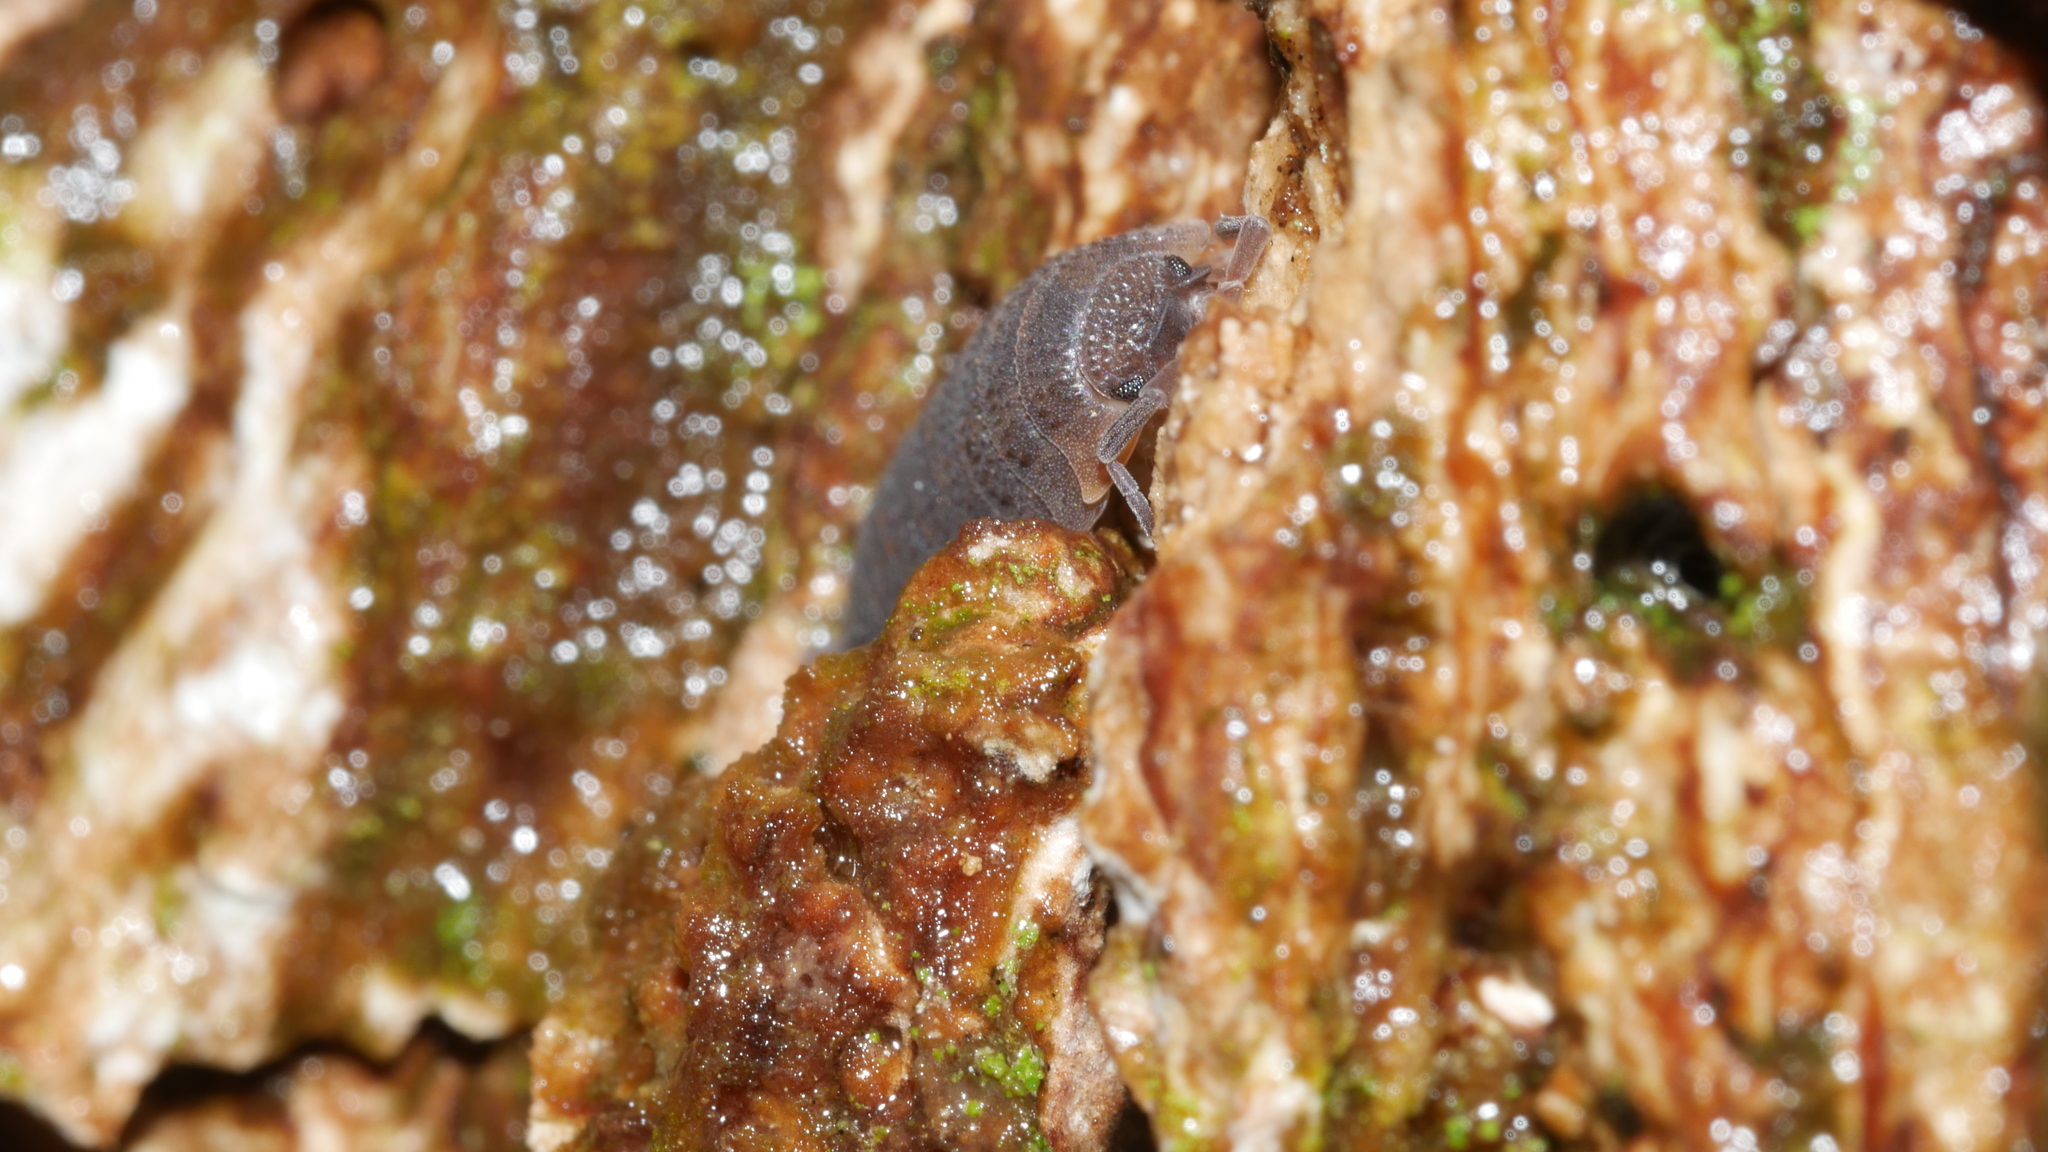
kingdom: Animalia
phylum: Arthropoda
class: Malacostraca
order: Isopoda
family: Porcellionidae
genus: Porcellio
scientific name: Porcellio scaber
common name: Common rough woodlouse
